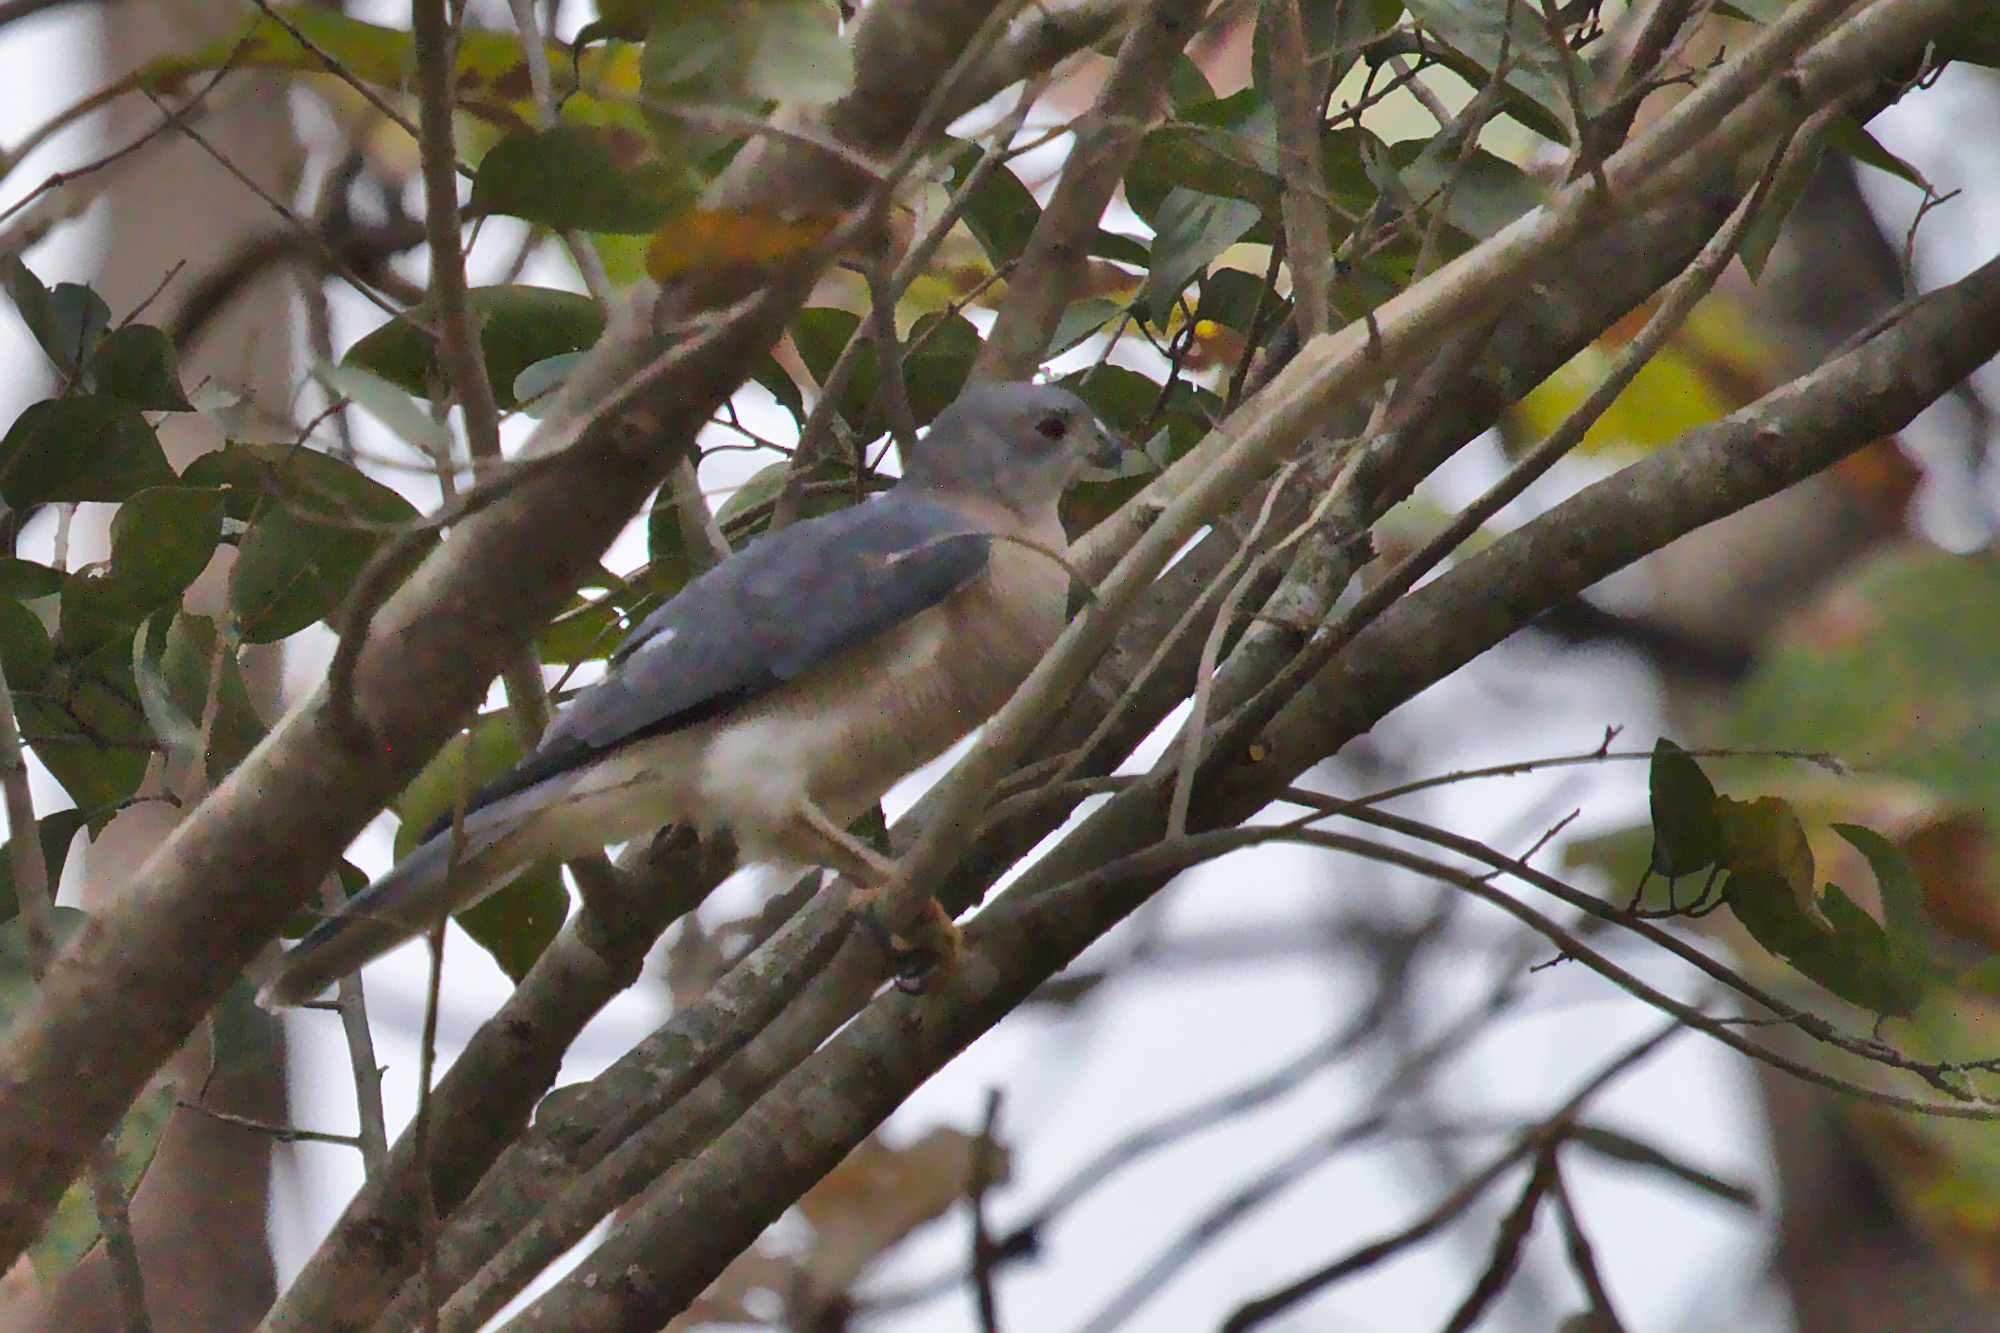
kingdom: Animalia
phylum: Chordata
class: Aves
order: Accipitriformes
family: Accipitridae
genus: Accipiter
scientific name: Accipiter badius
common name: Shikra
